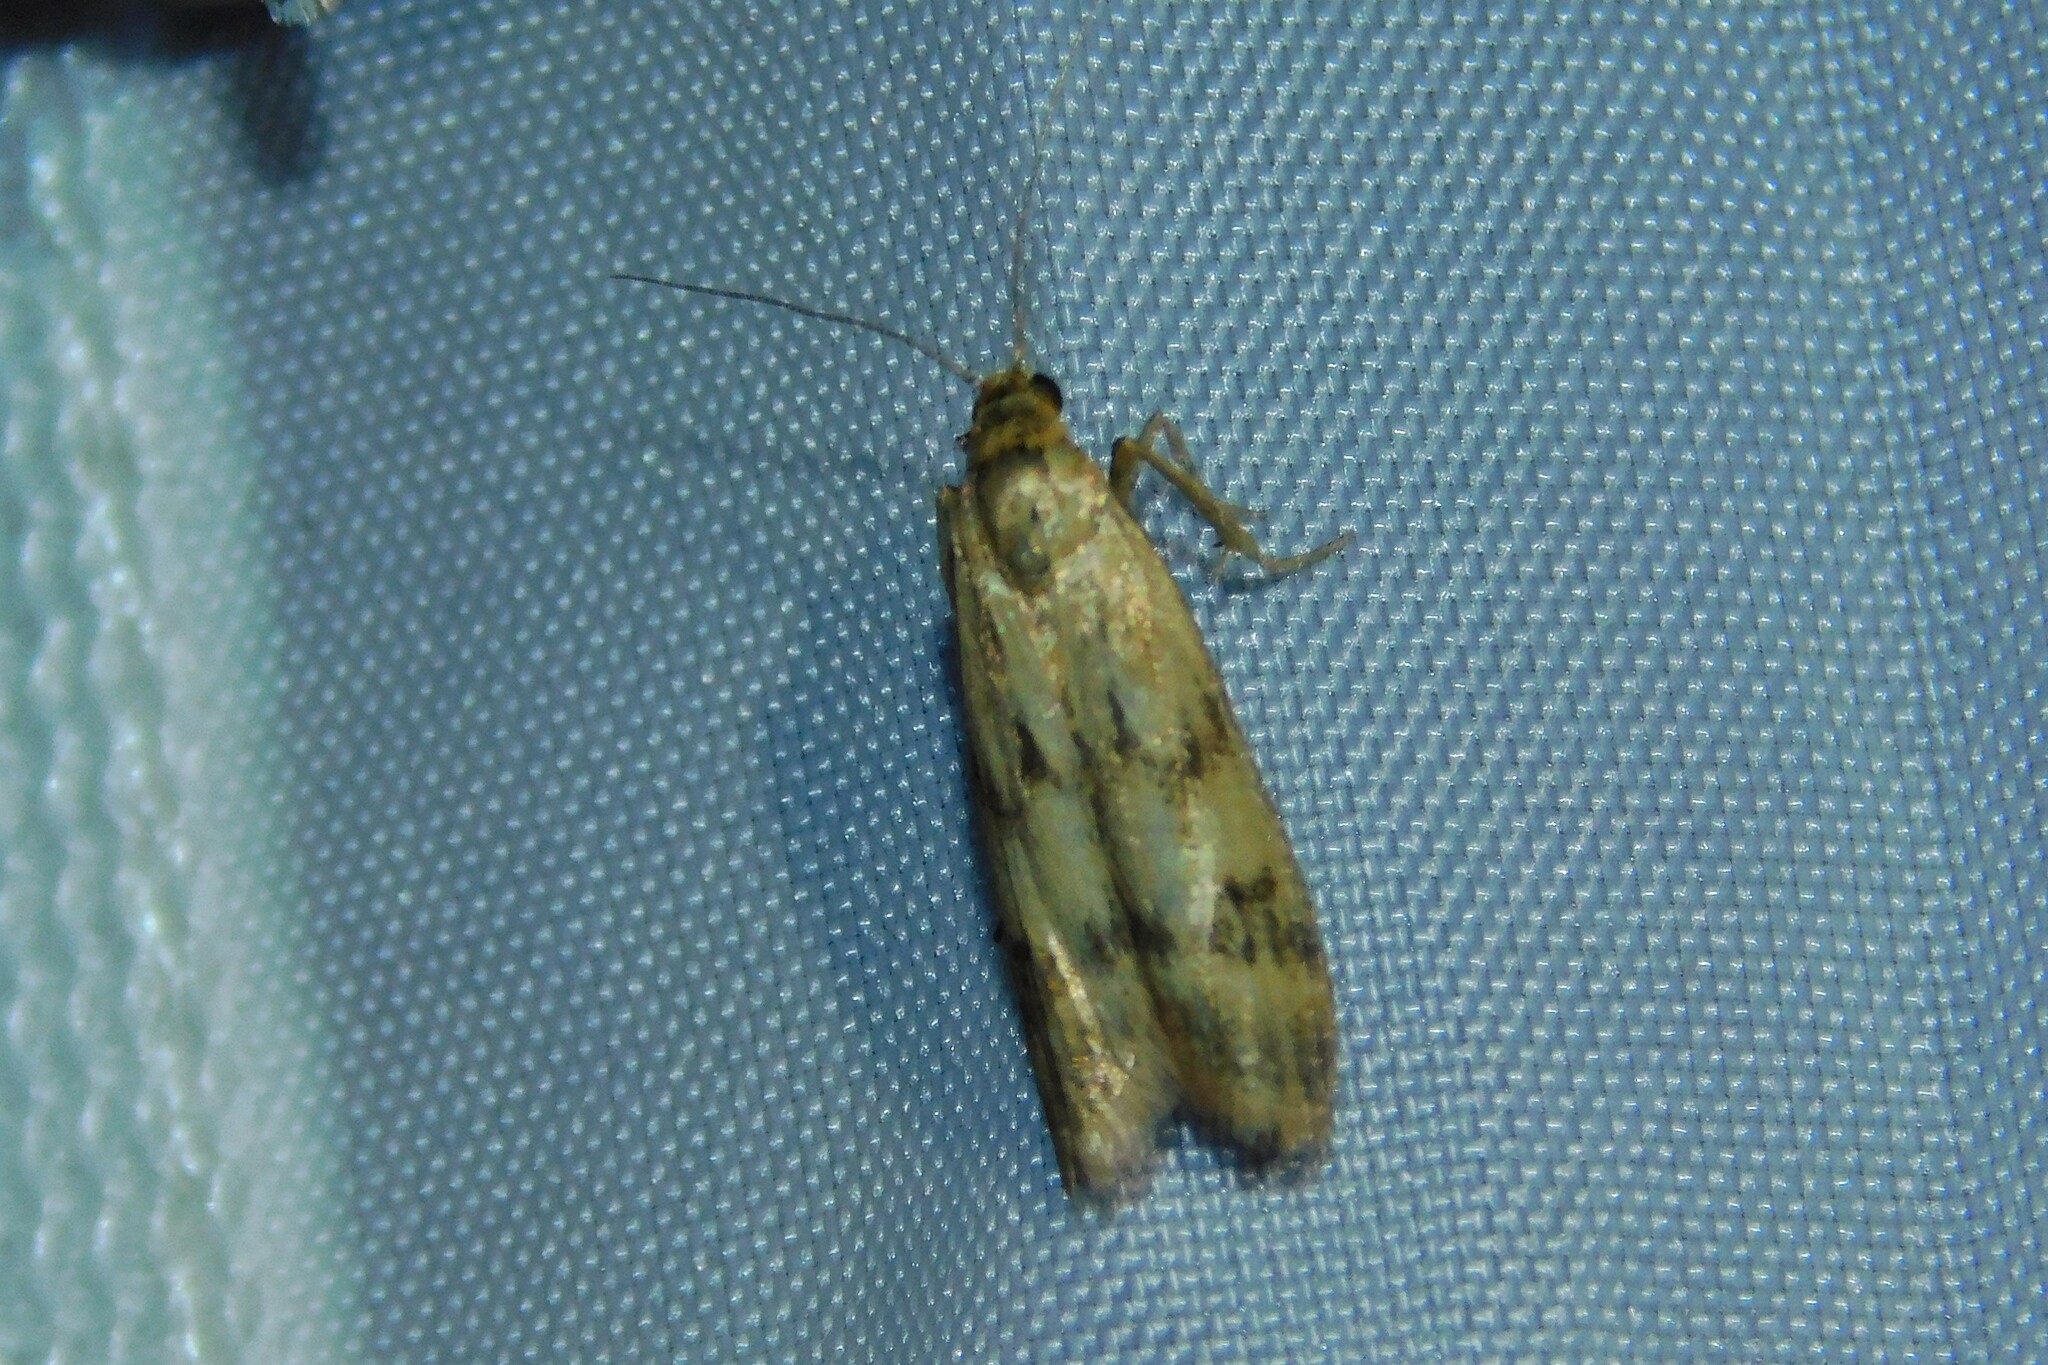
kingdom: Animalia
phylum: Arthropoda
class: Insecta
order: Lepidoptera
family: Pyralidae
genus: Homoeosoma
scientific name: Homoeosoma sinuella
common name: Twin-barred knot-horn
